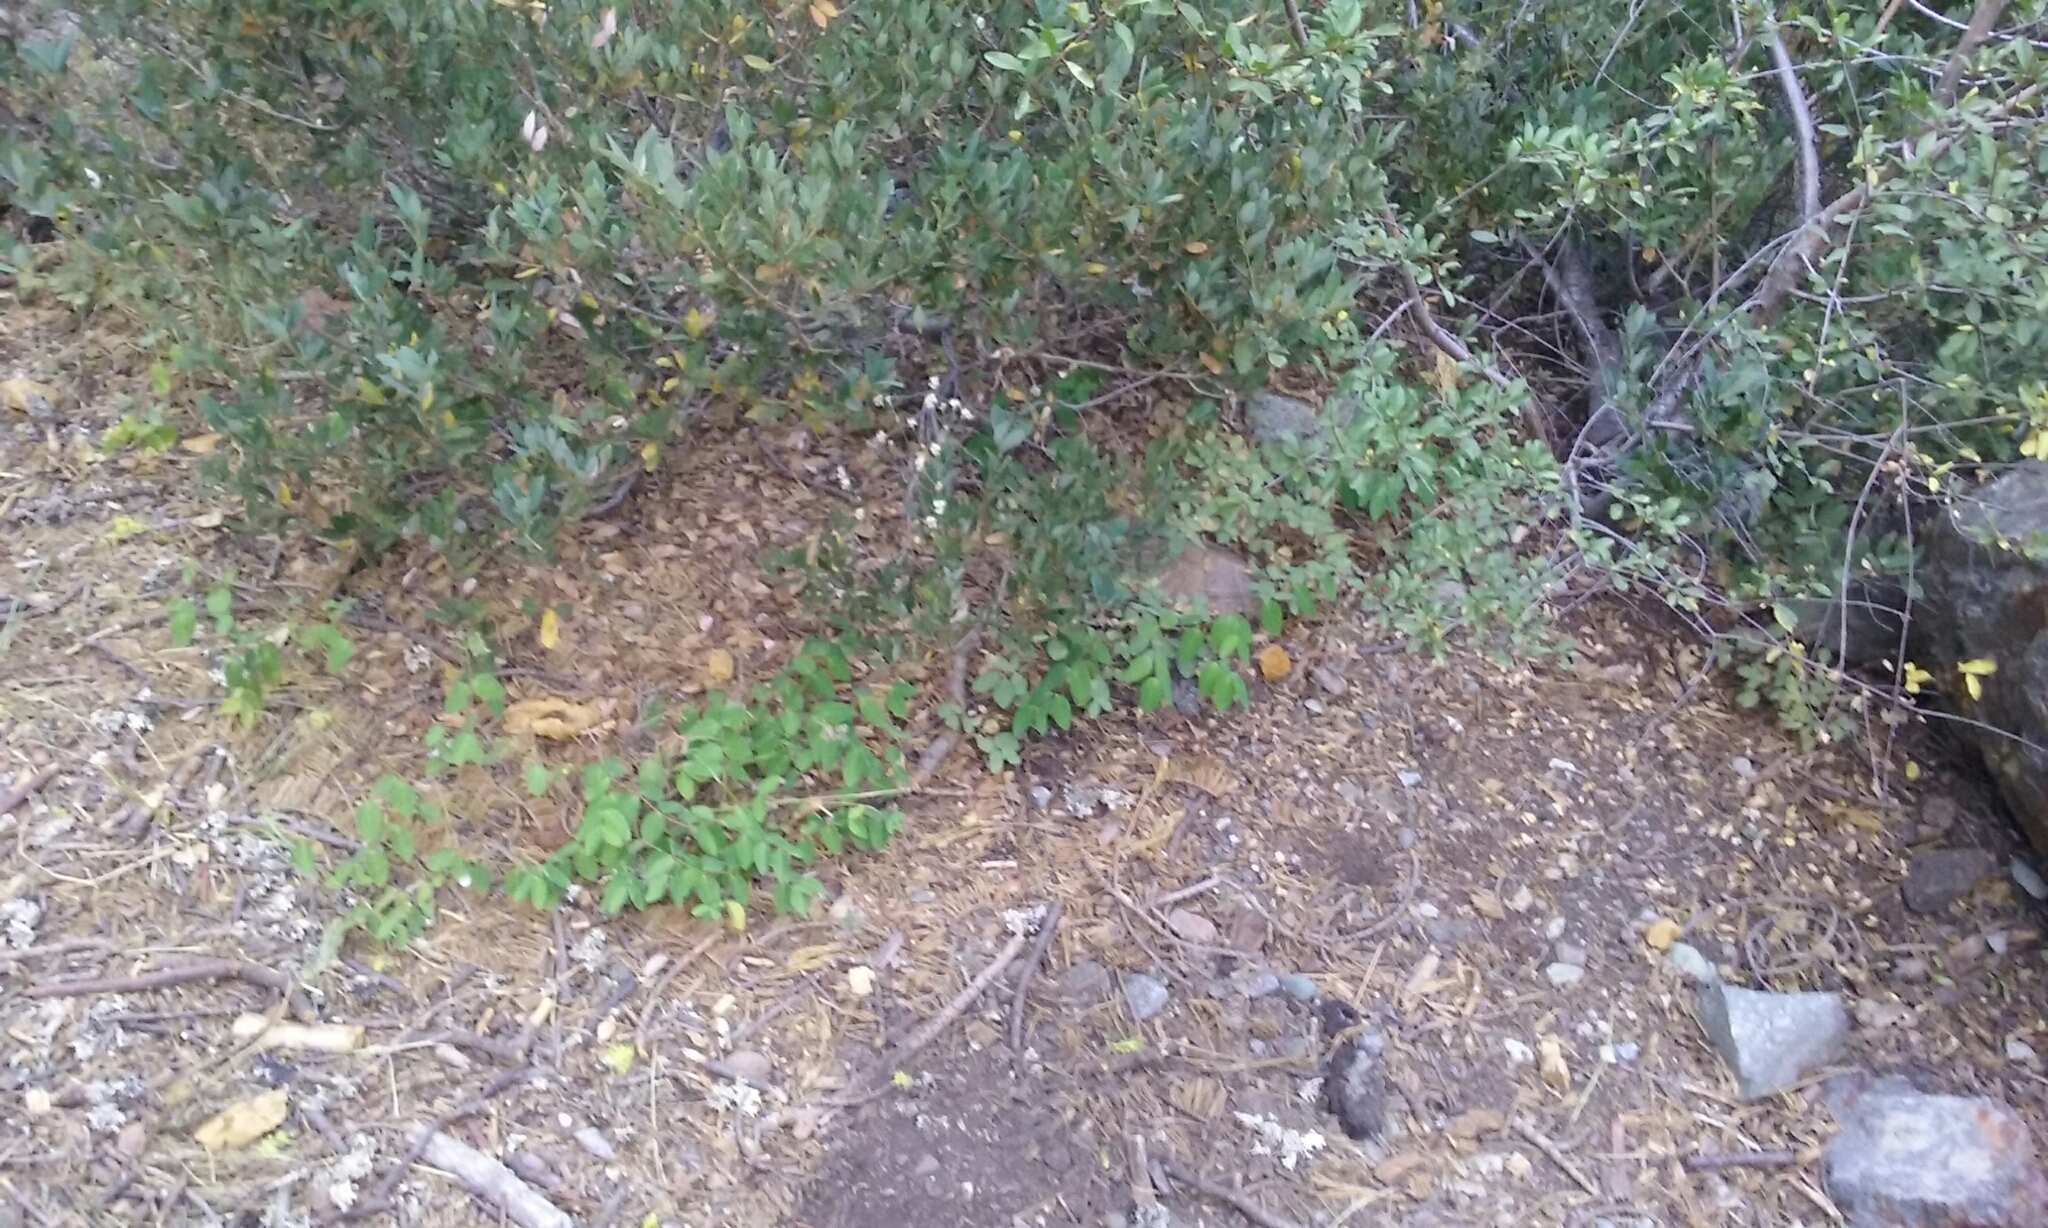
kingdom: Plantae
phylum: Tracheophyta
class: Magnoliopsida
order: Gentianales
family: Apocynaceae
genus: Apocynum
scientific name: Apocynum androsaemifolium
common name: Spreading dogbane
